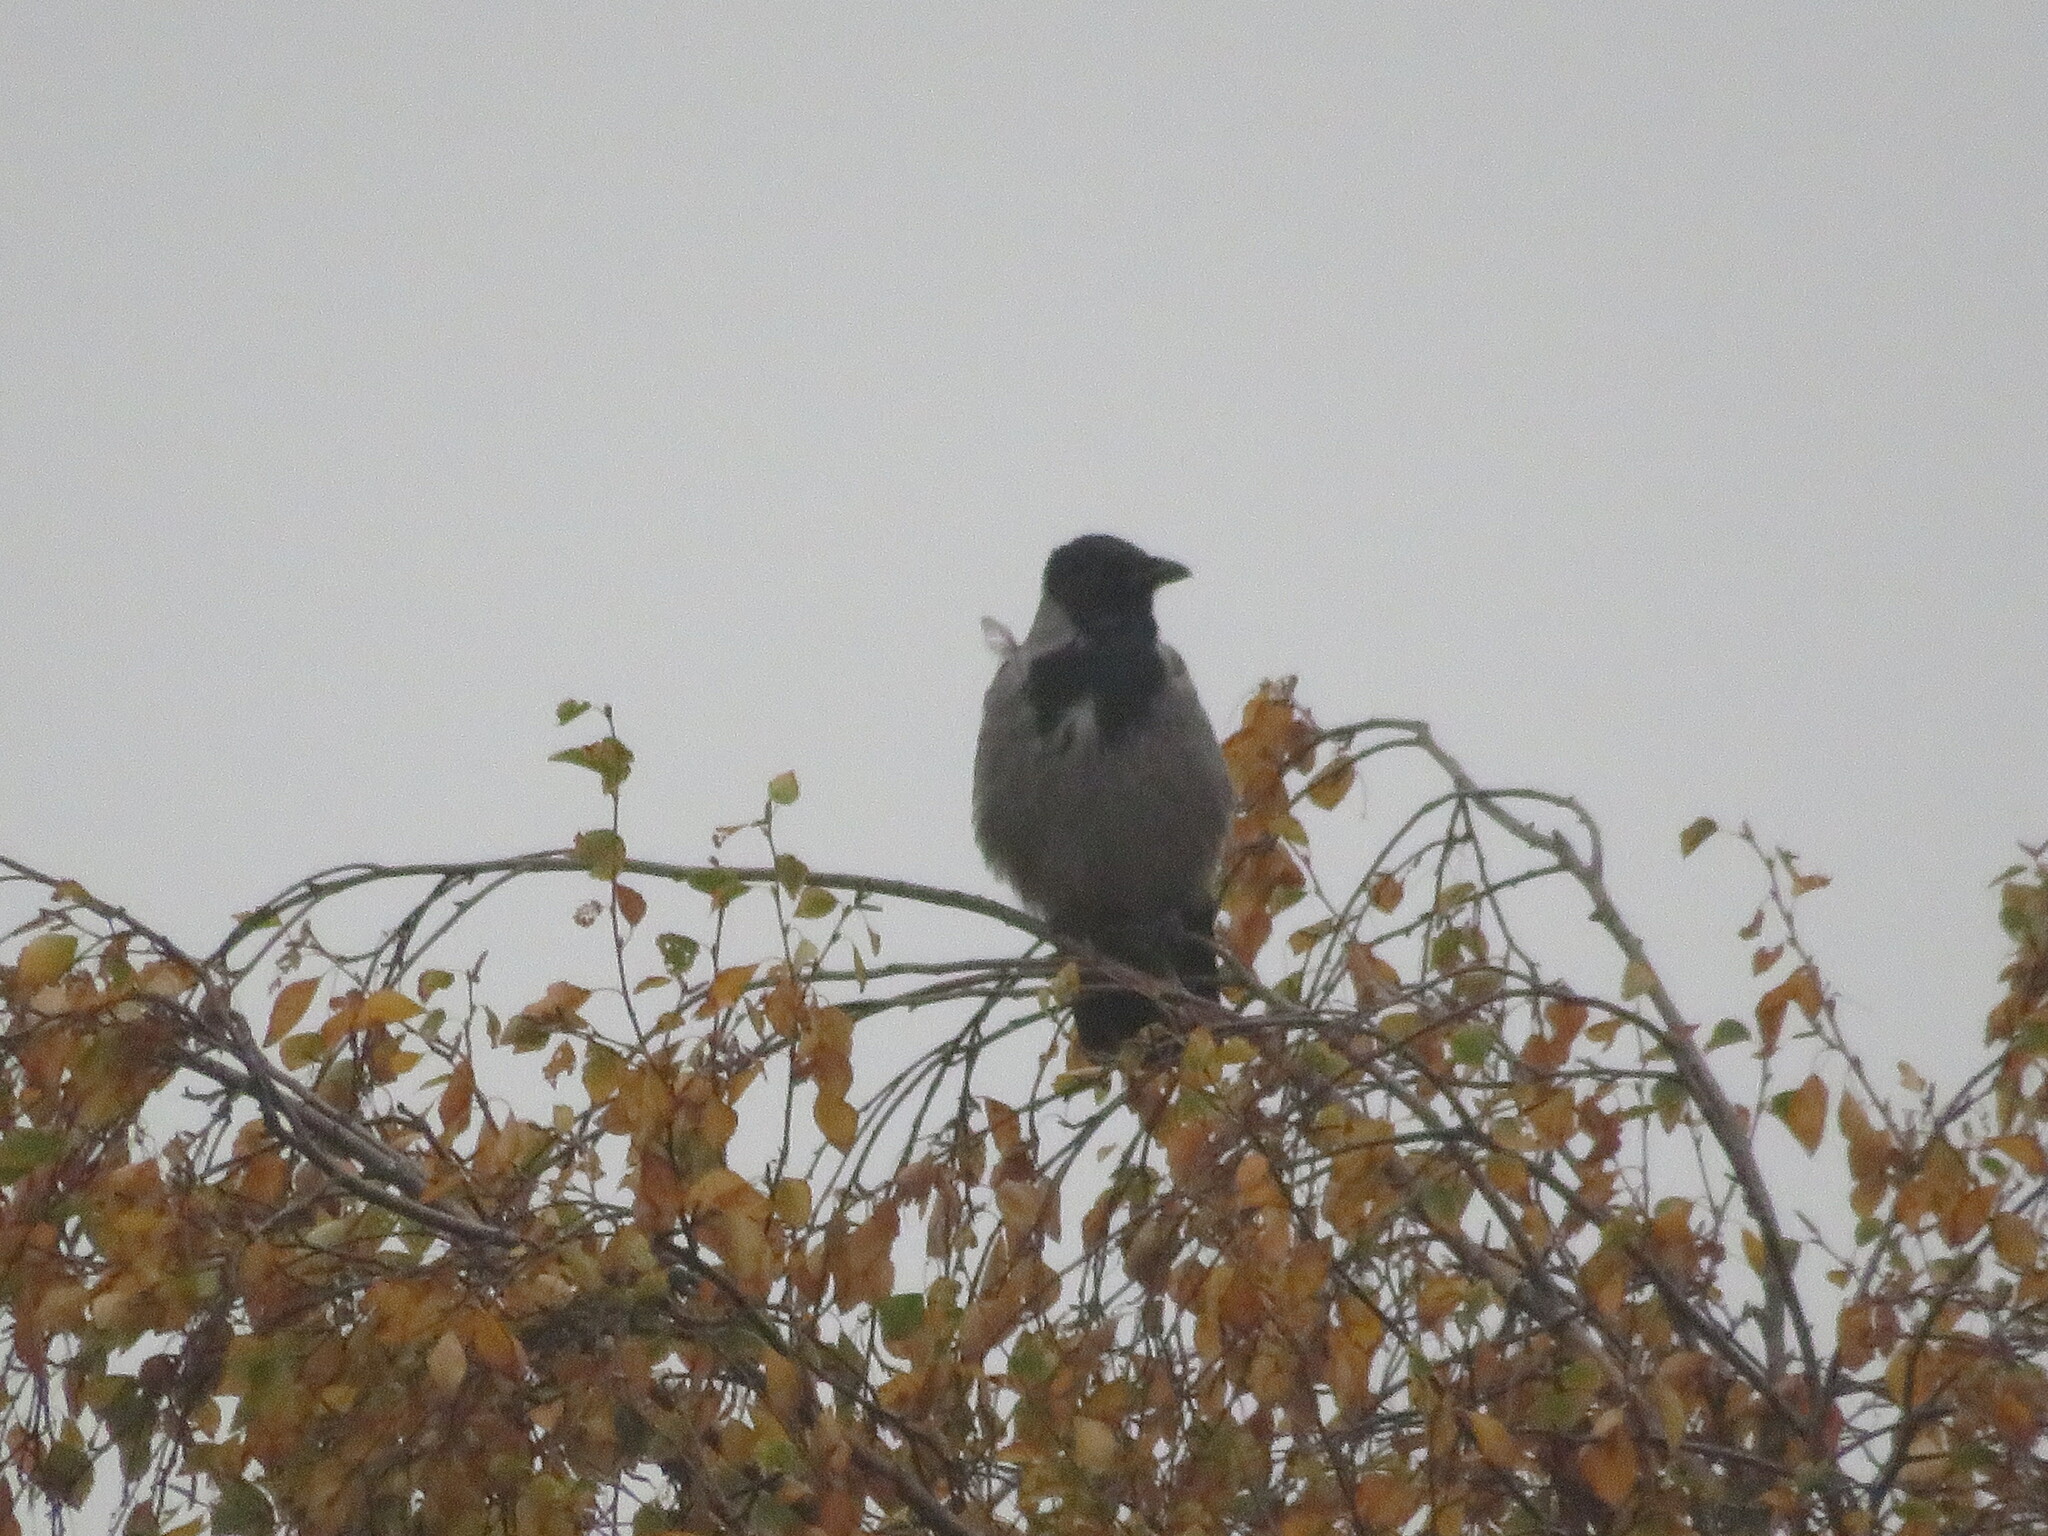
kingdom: Animalia
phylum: Chordata
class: Aves
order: Passeriformes
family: Corvidae
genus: Corvus
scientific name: Corvus cornix
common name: Hooded crow
